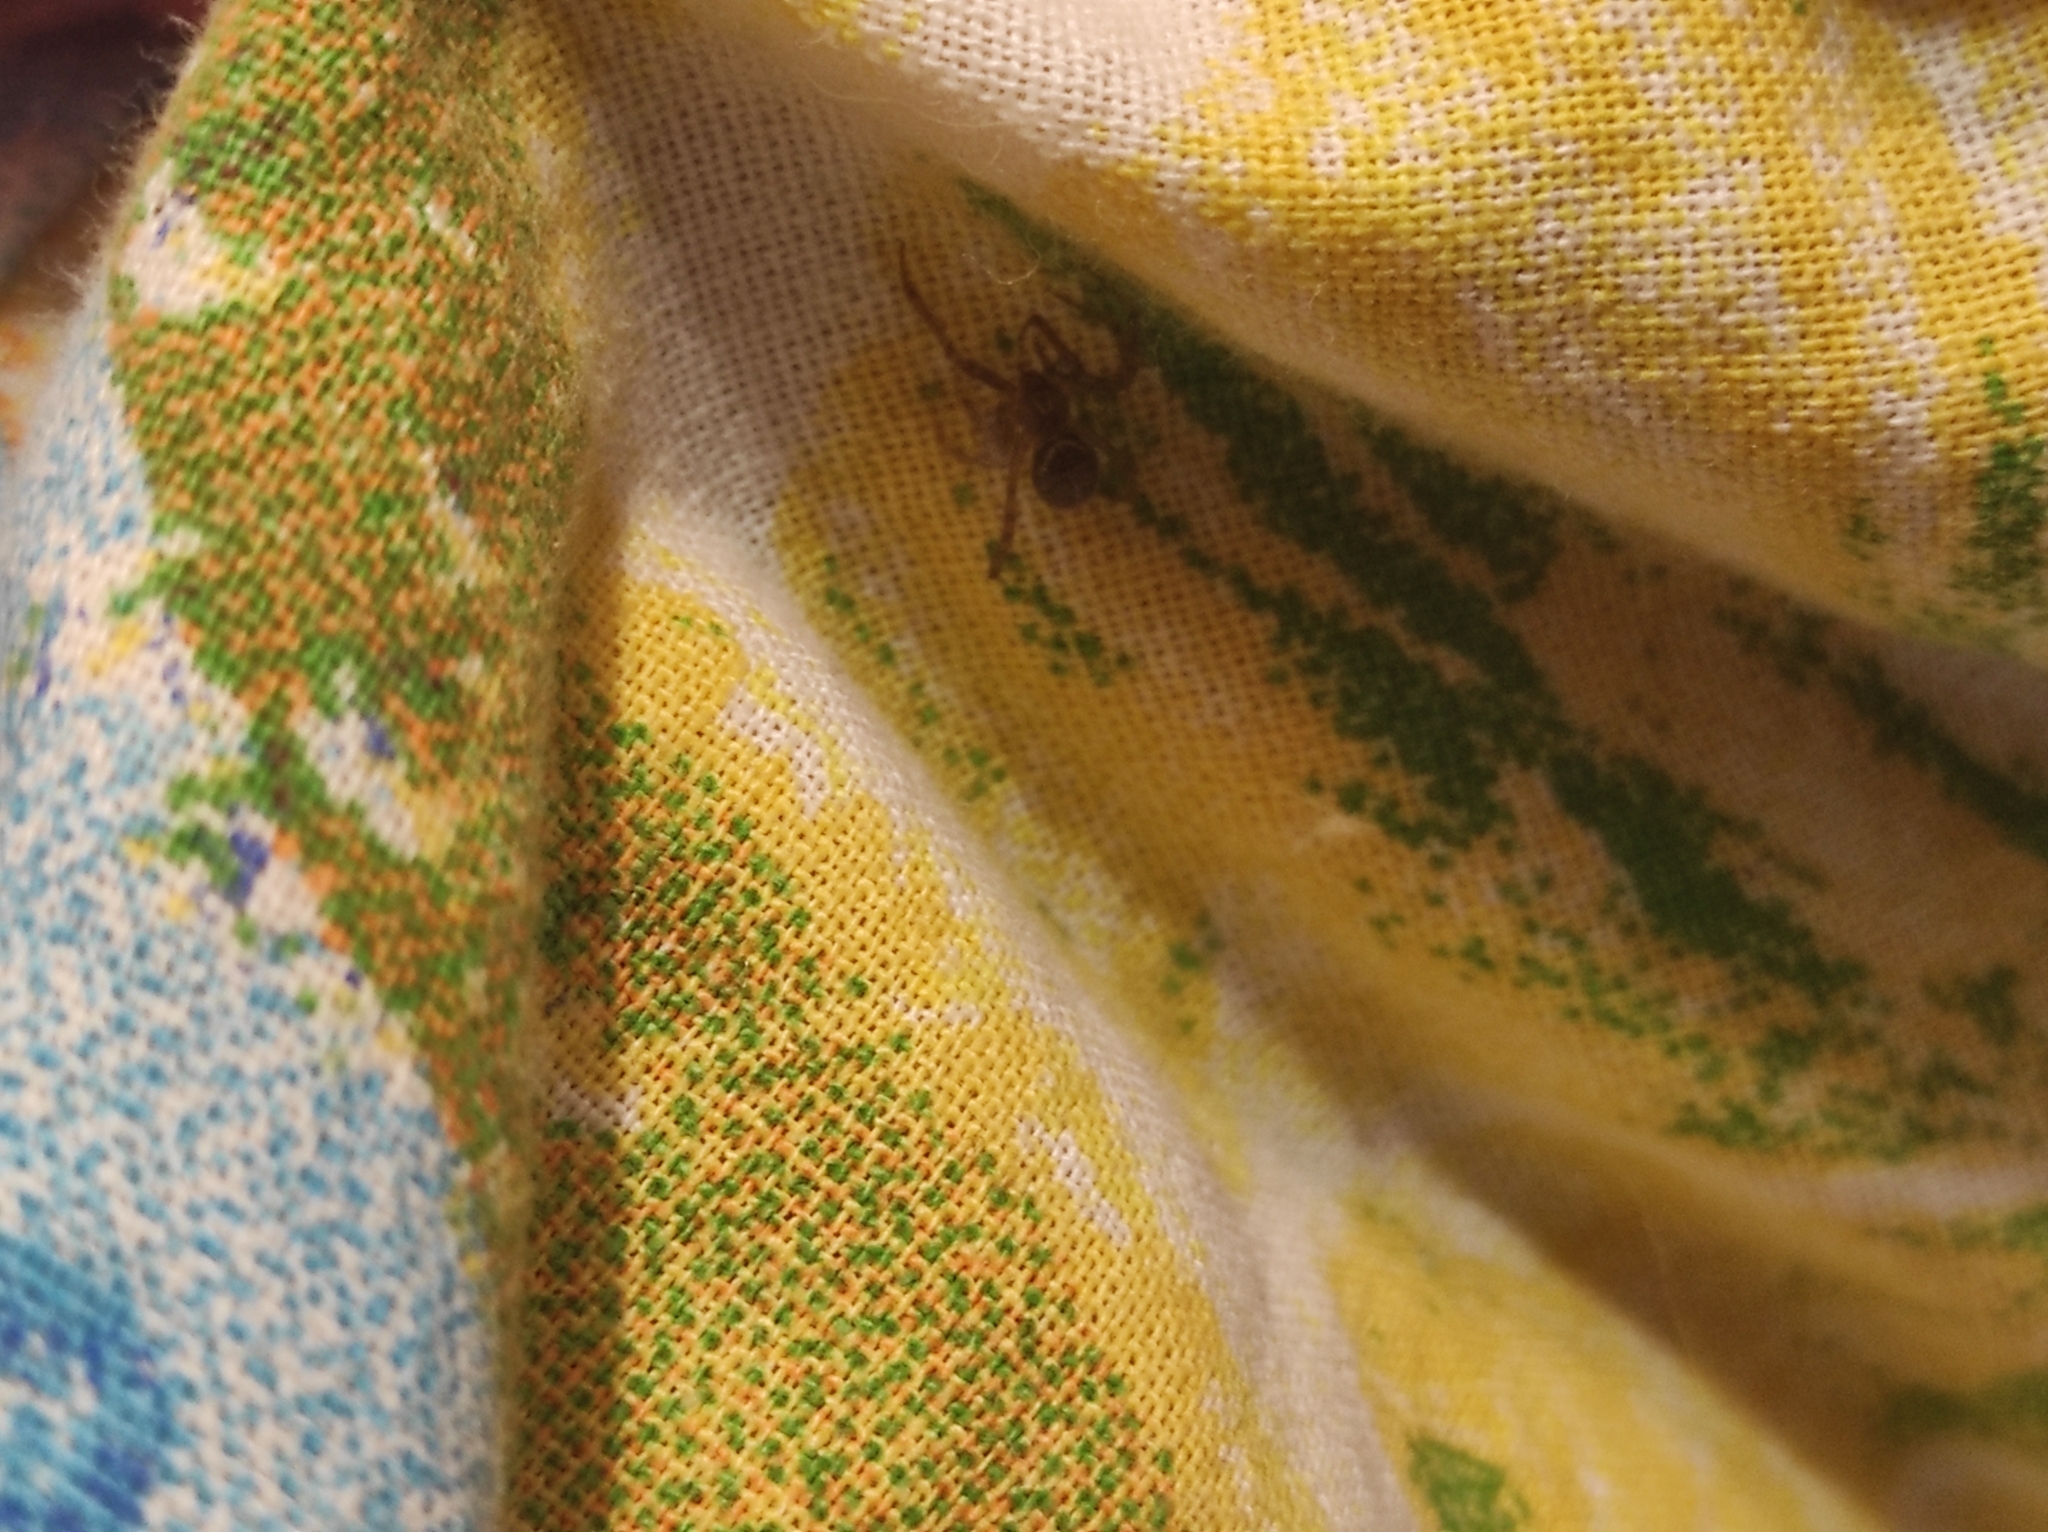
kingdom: Animalia
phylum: Arthropoda
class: Arachnida
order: Araneae
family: Theridiidae
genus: Steatoda
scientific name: Steatoda castanea
